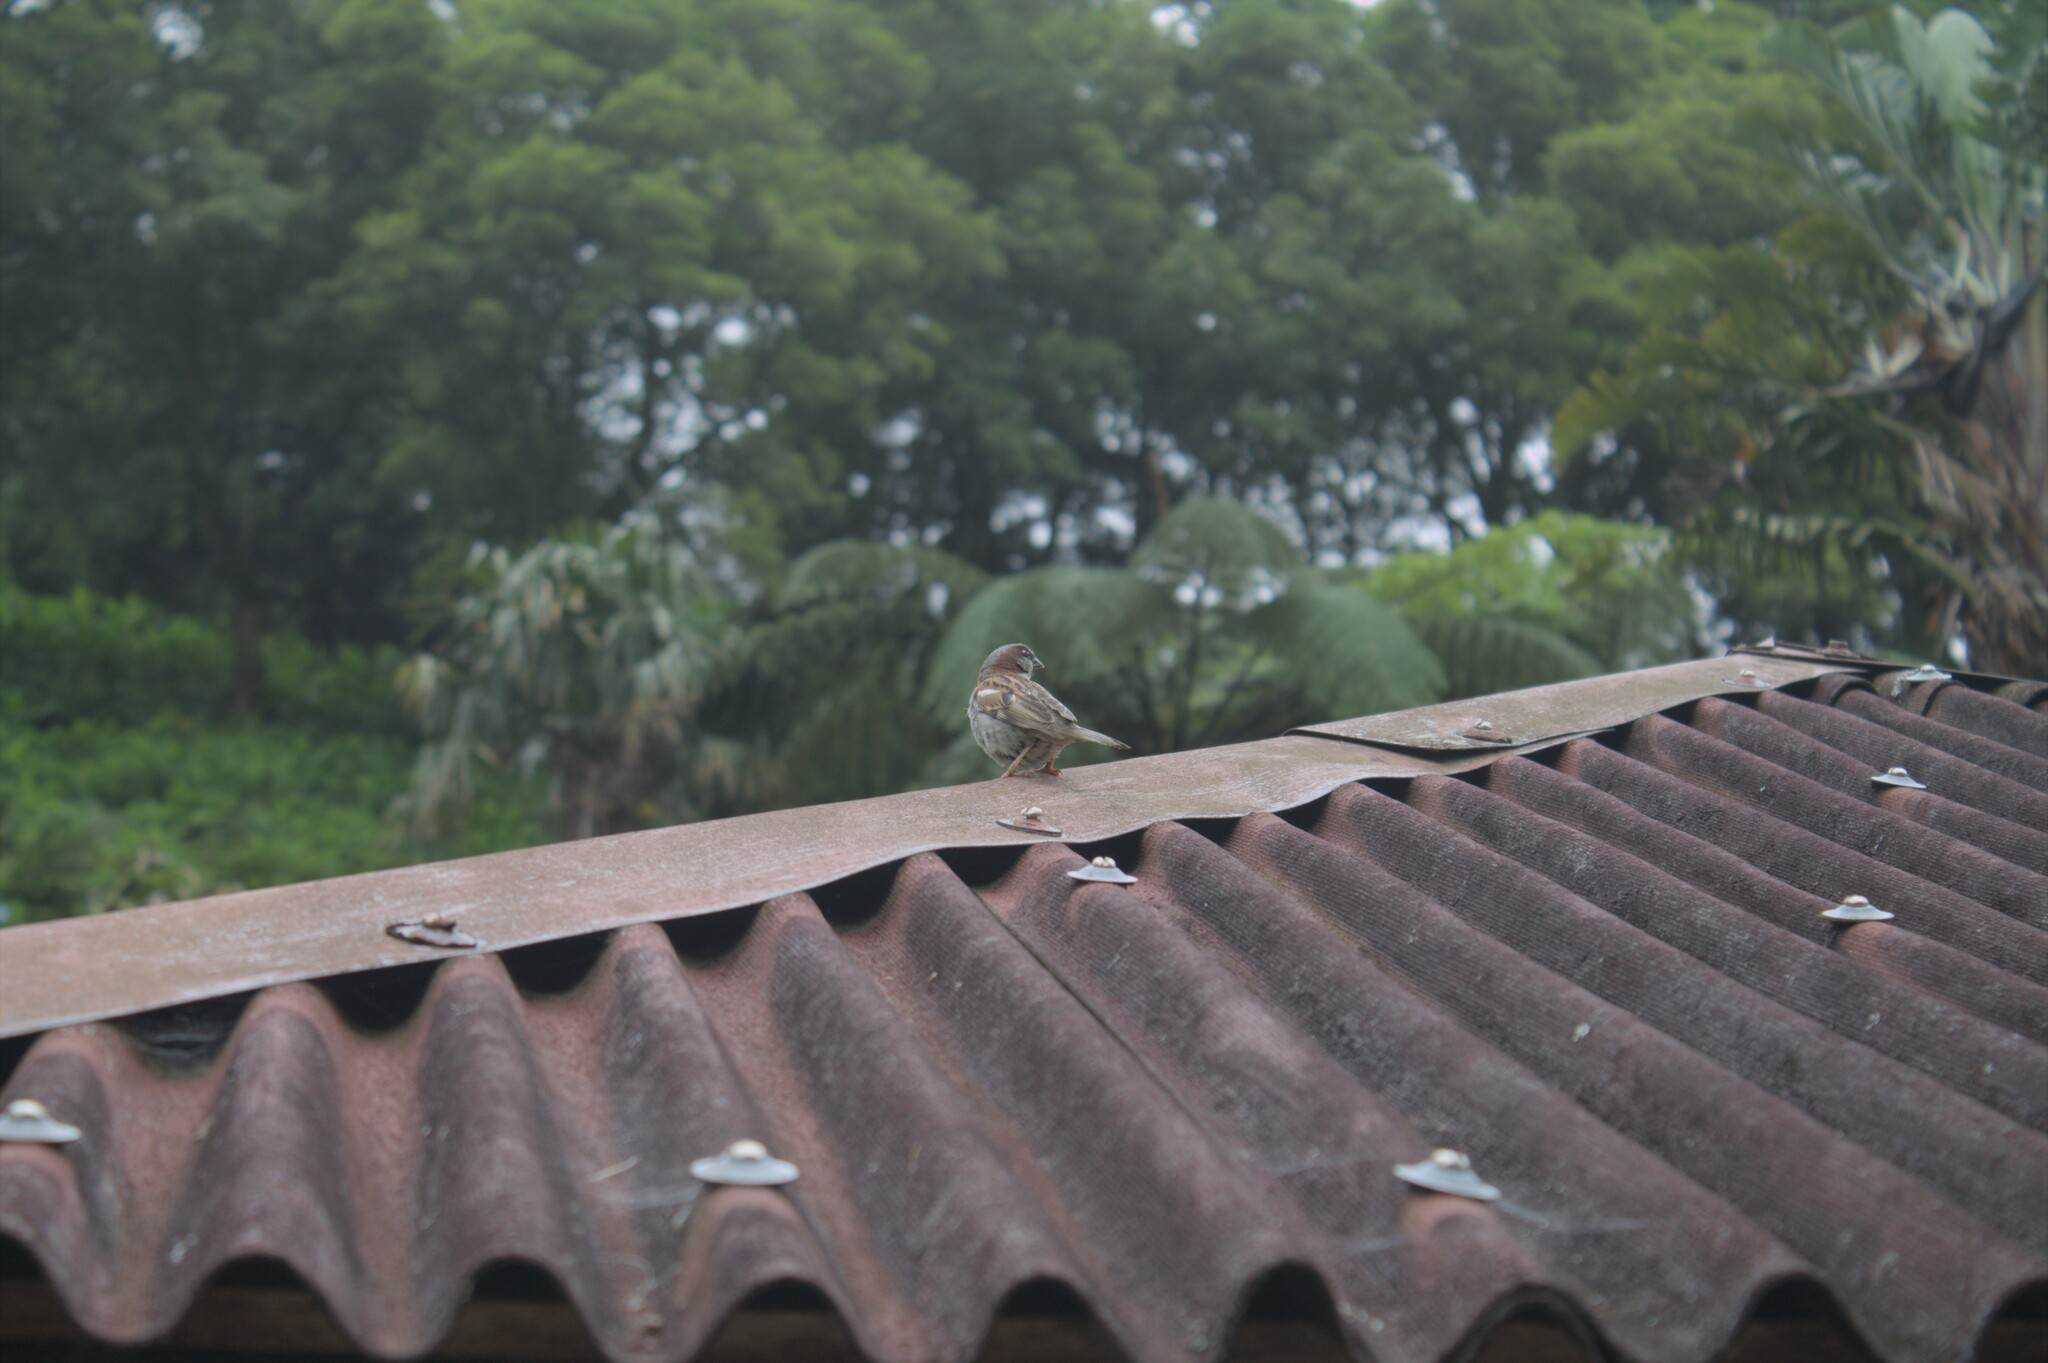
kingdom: Animalia
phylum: Chordata
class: Aves
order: Passeriformes
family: Passeridae
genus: Passer
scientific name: Passer domesticus
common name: House sparrow
